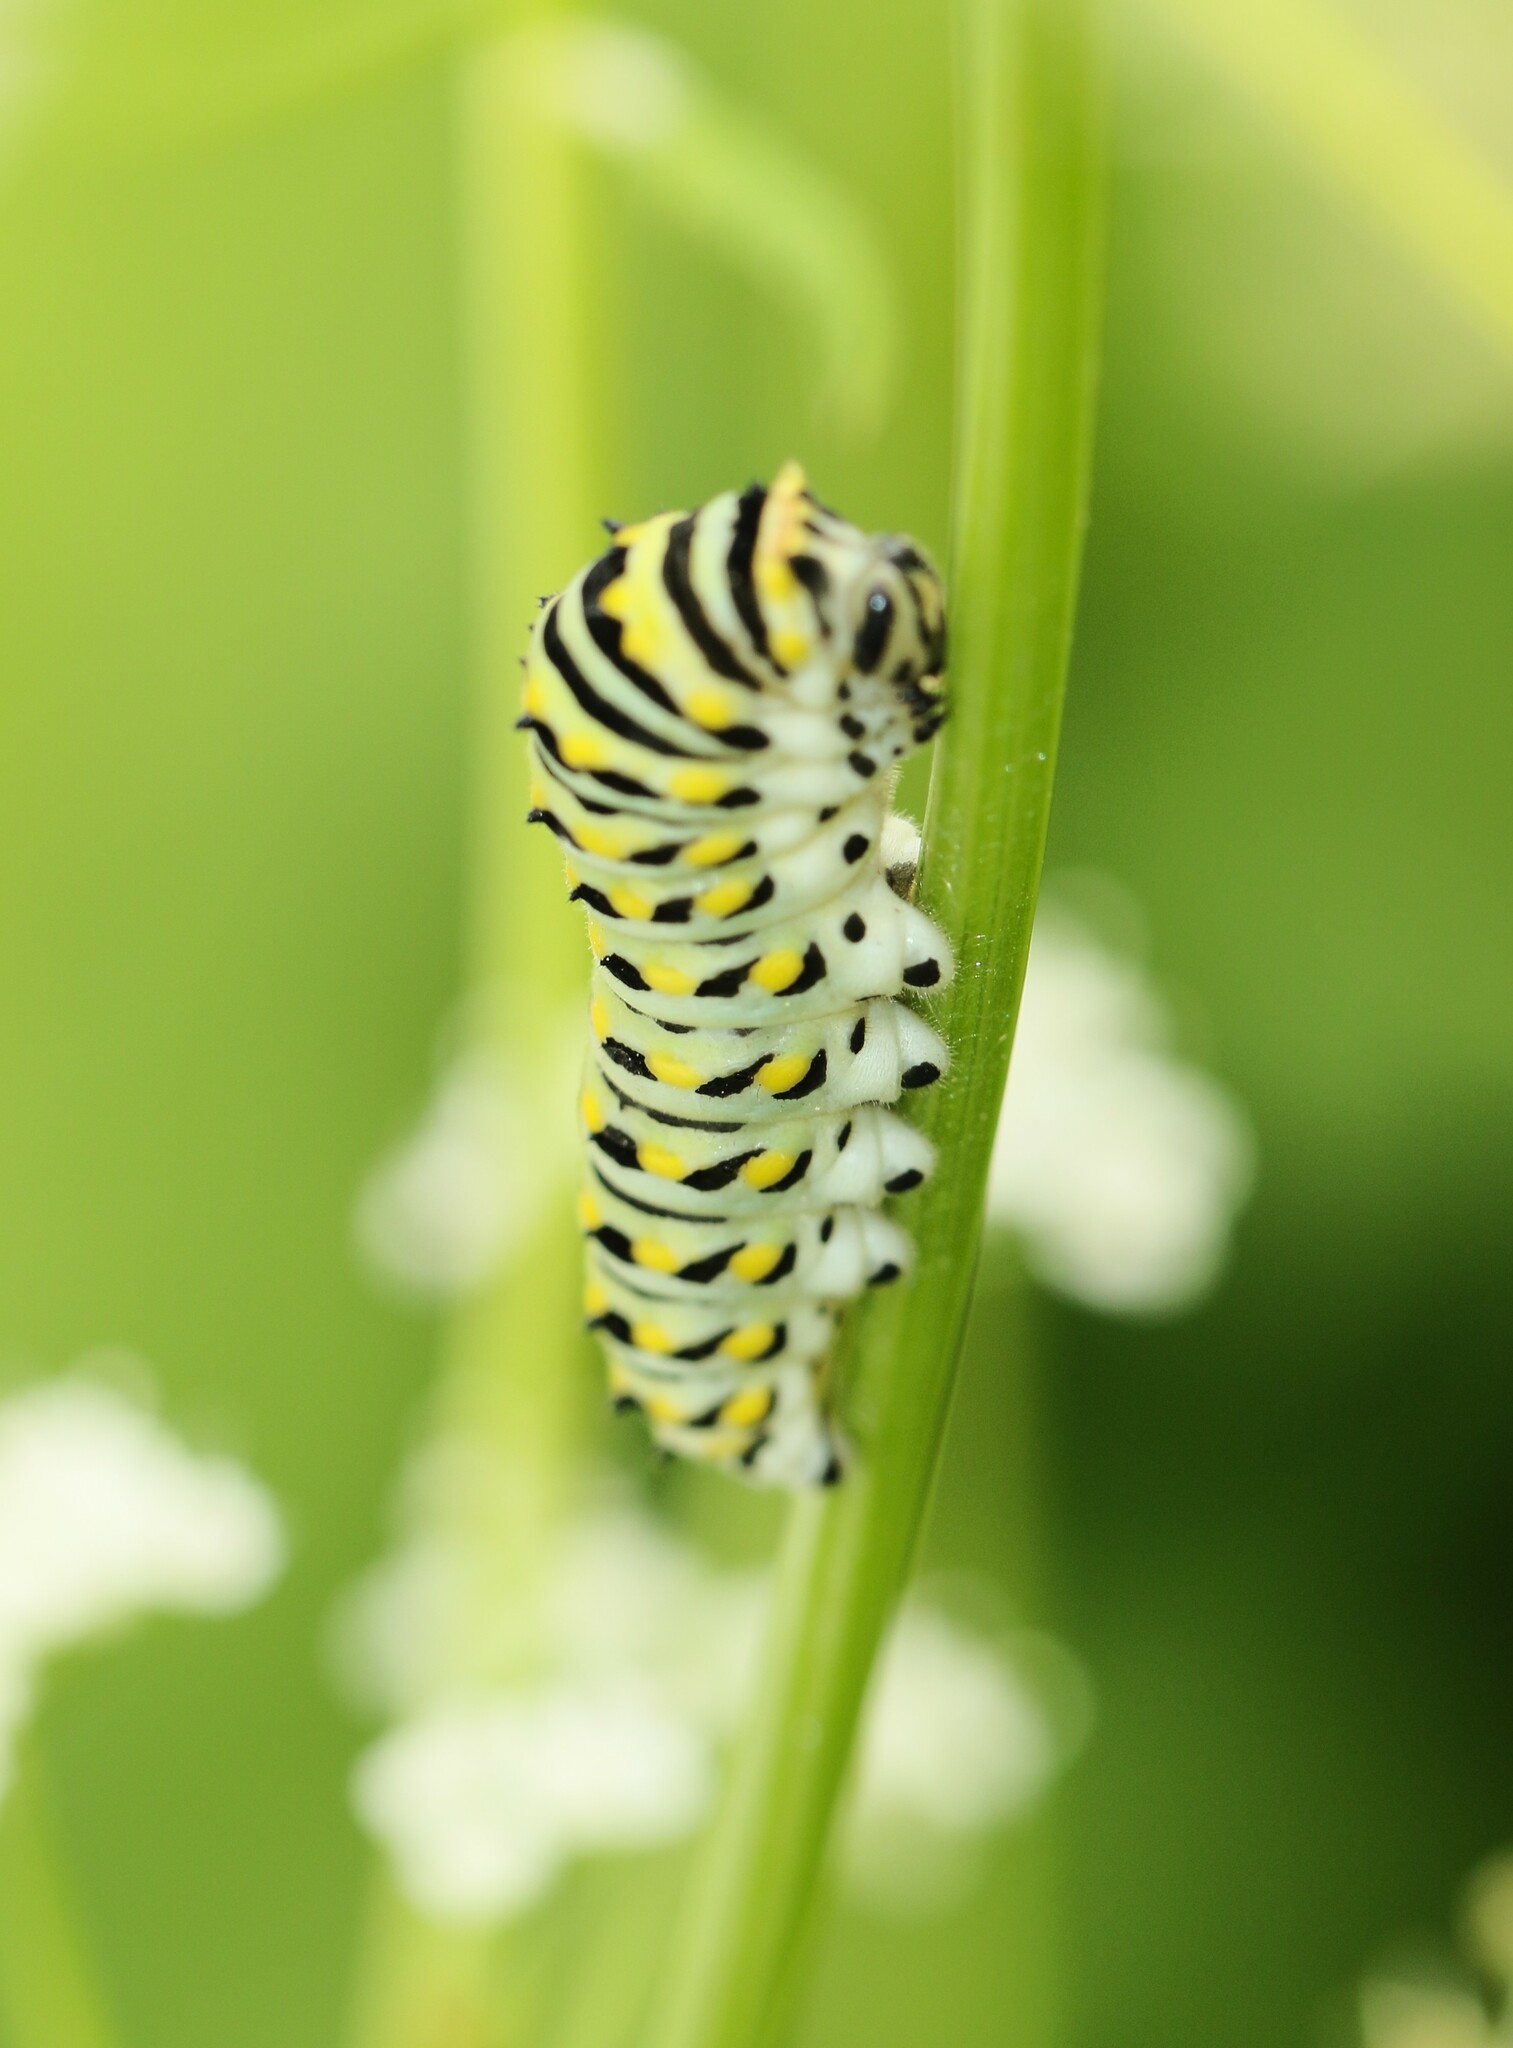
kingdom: Animalia
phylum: Arthropoda
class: Insecta
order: Lepidoptera
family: Papilionidae
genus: Papilio
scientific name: Papilio polyxenes
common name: Black swallowtail
